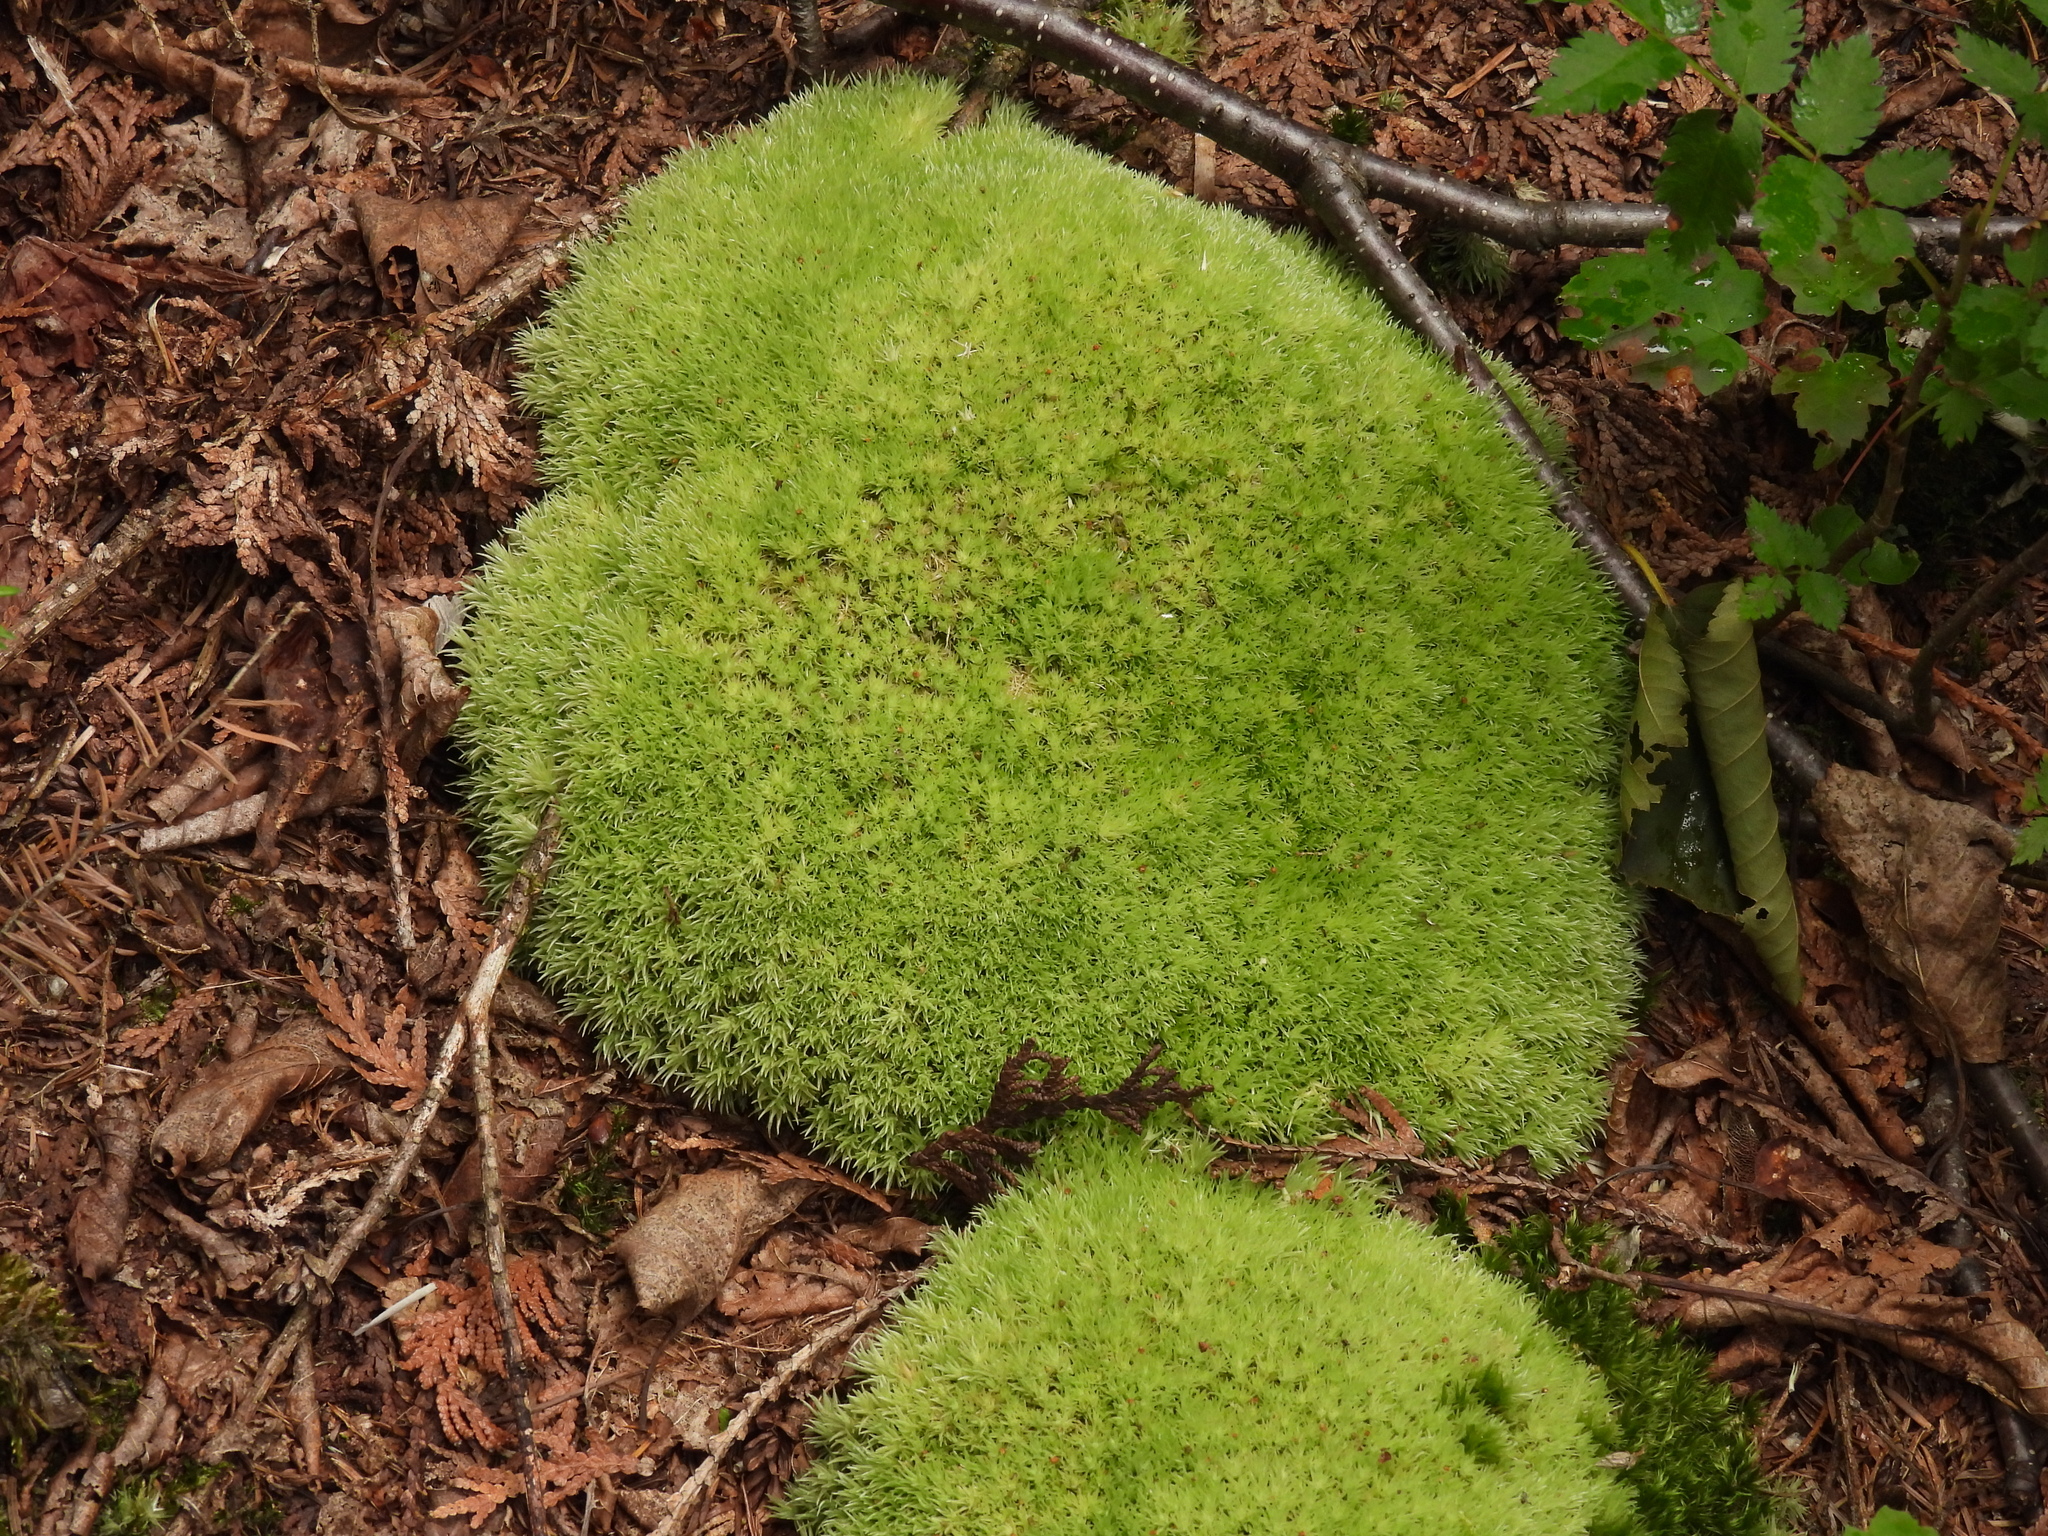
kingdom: Plantae
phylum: Bryophyta
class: Bryopsida
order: Dicranales
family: Leucobryaceae
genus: Leucobryum
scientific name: Leucobryum glaucum
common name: Large white-moss
